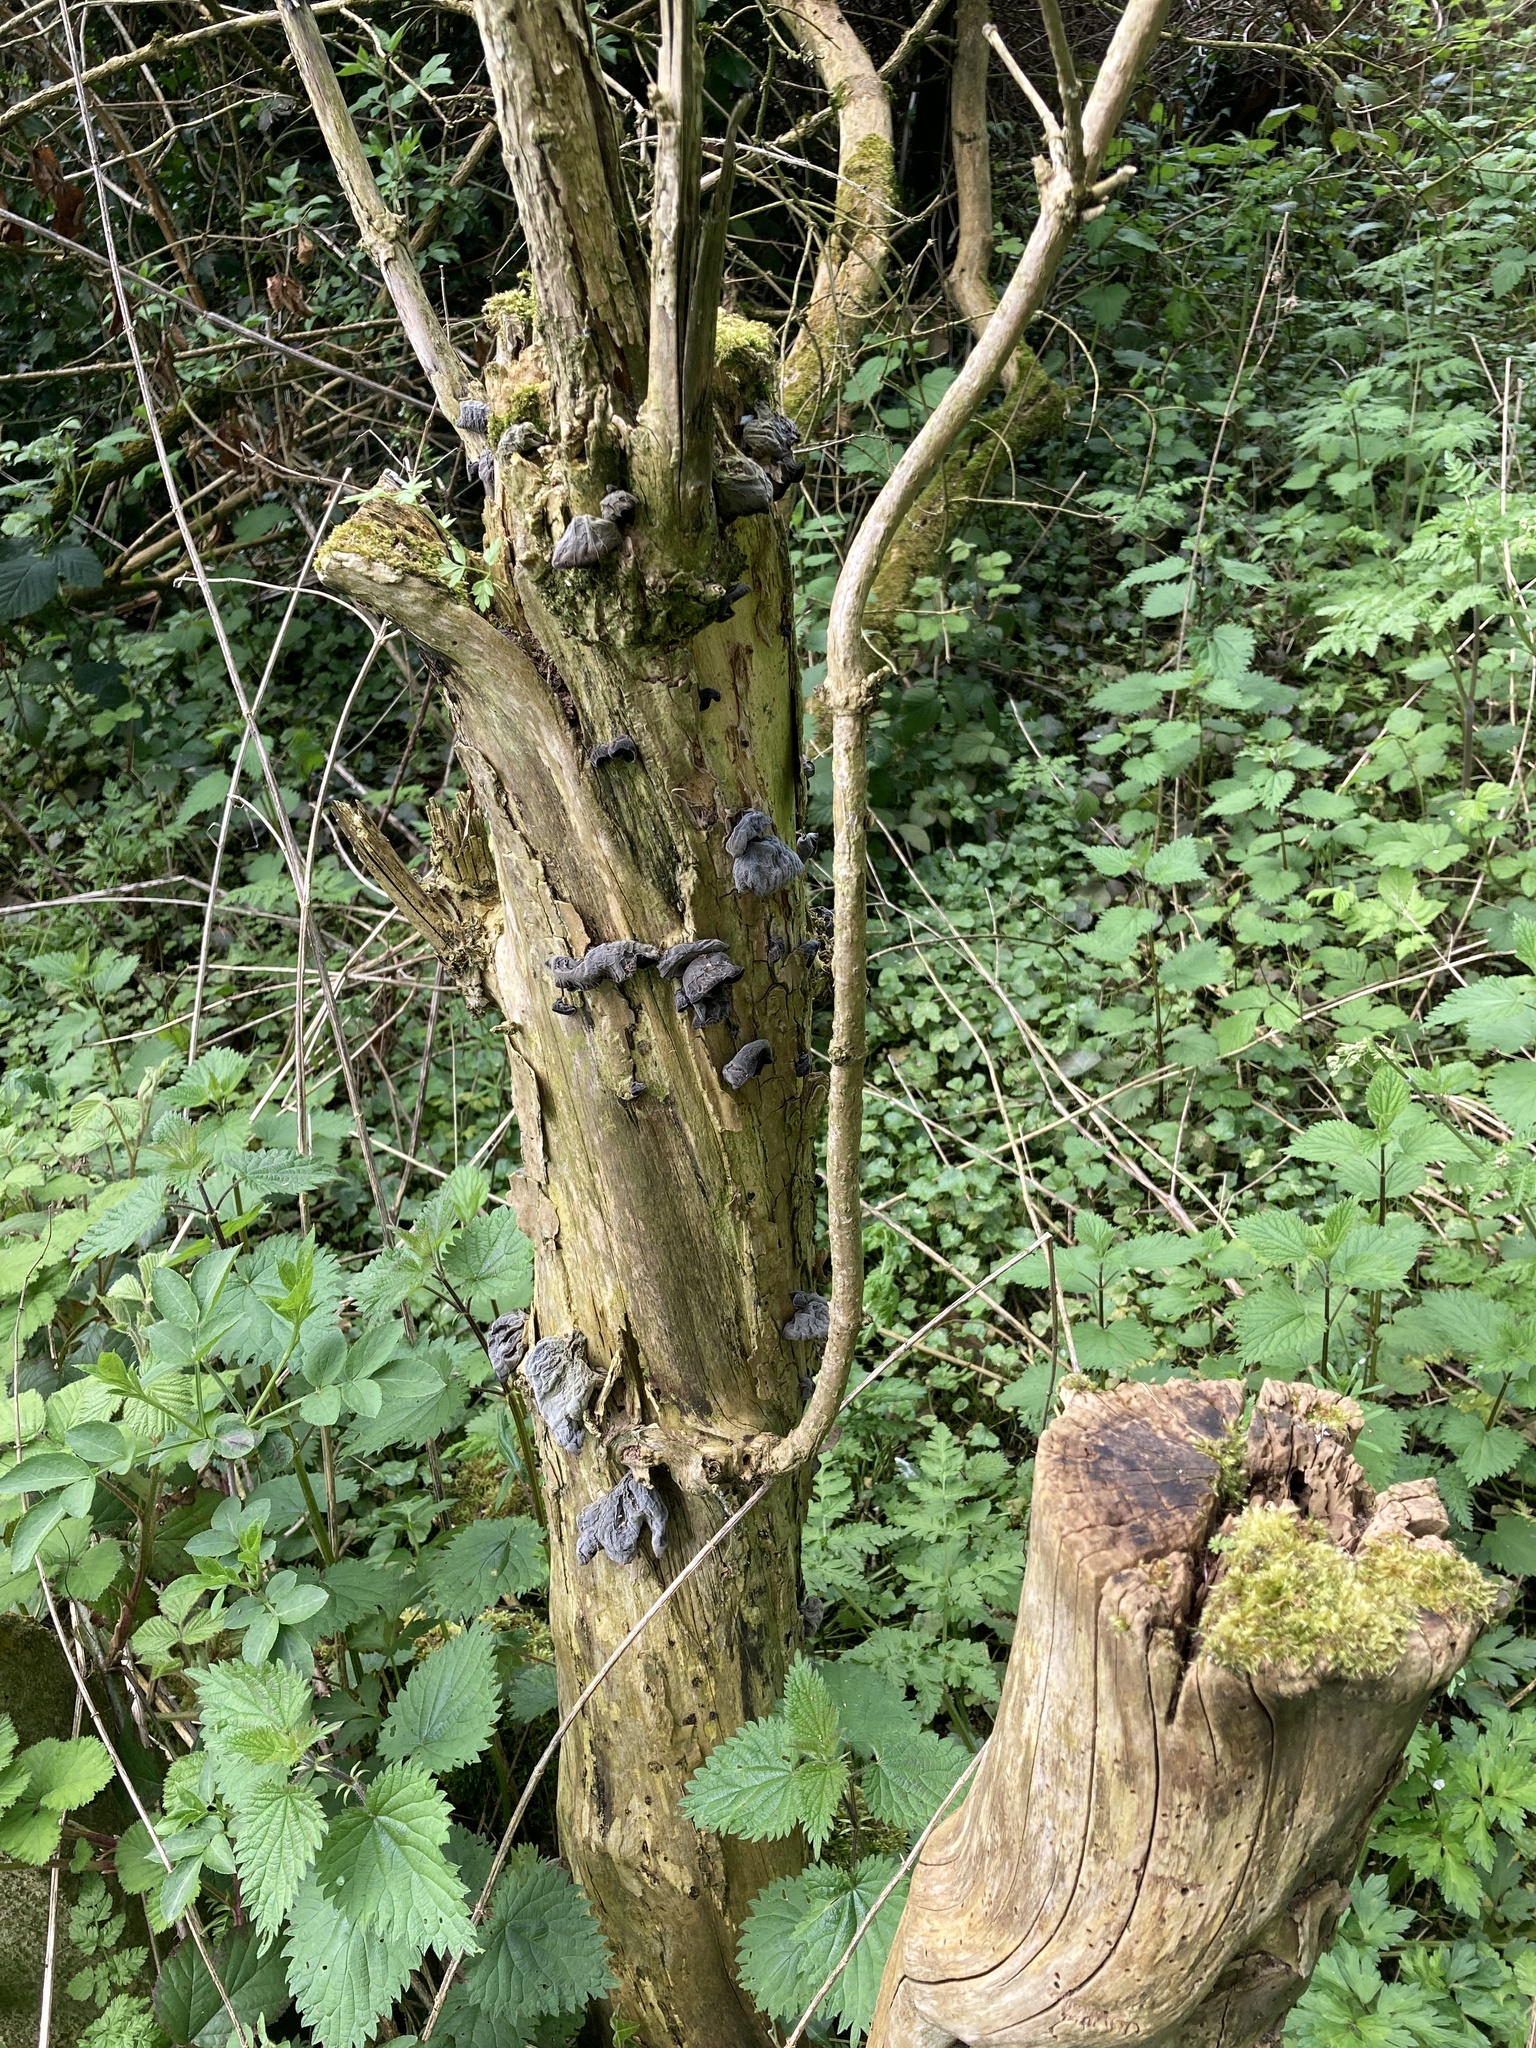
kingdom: Fungi
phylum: Basidiomycota
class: Agaricomycetes
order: Auriculariales
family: Auriculariaceae
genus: Auricularia
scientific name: Auricularia auricula-judae
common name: Jelly ear
